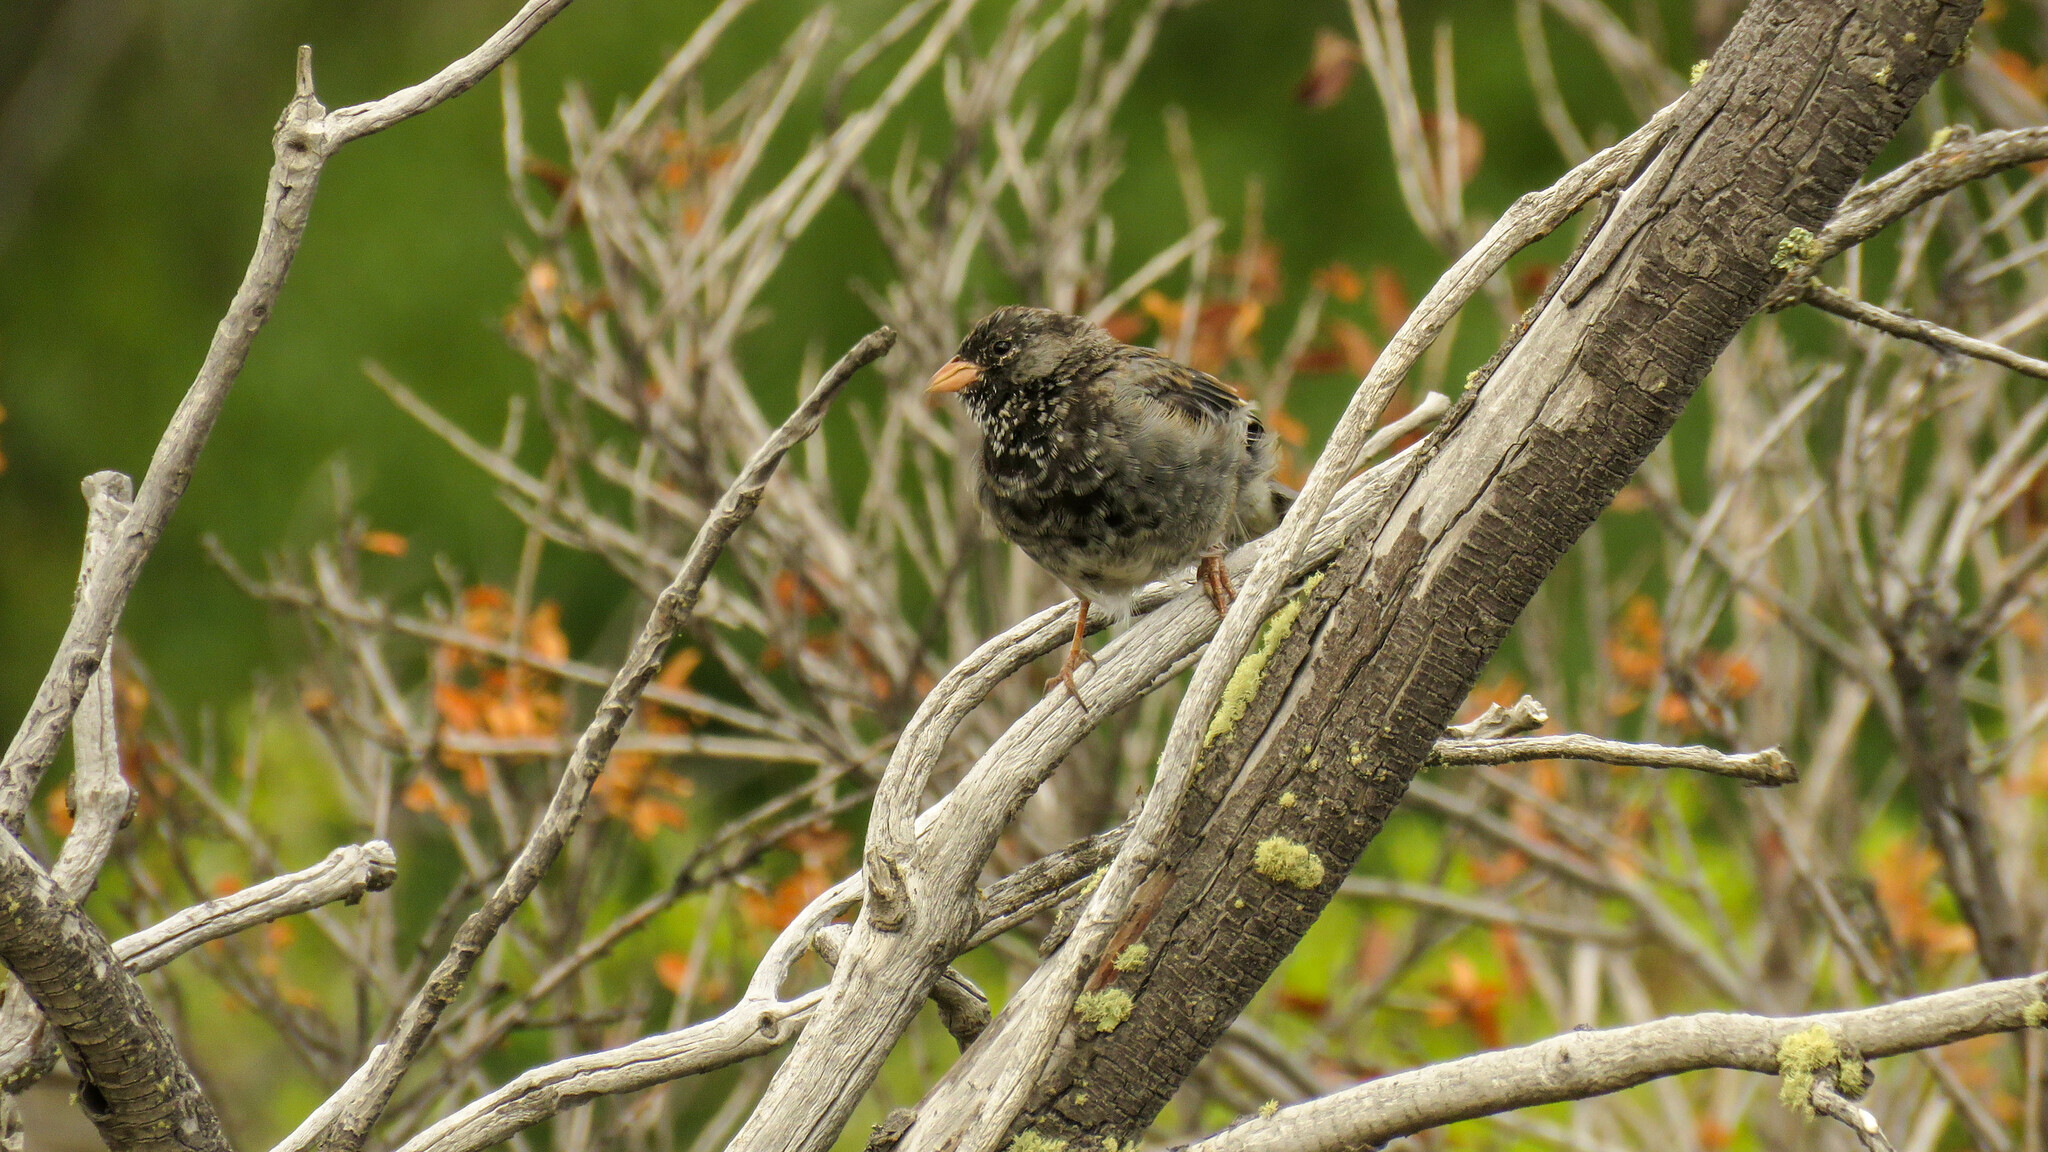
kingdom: Animalia
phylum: Chordata
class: Aves
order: Passeriformes
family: Thraupidae
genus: Rhopospina
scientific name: Rhopospina fruticeti
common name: Mourning sierra finch
